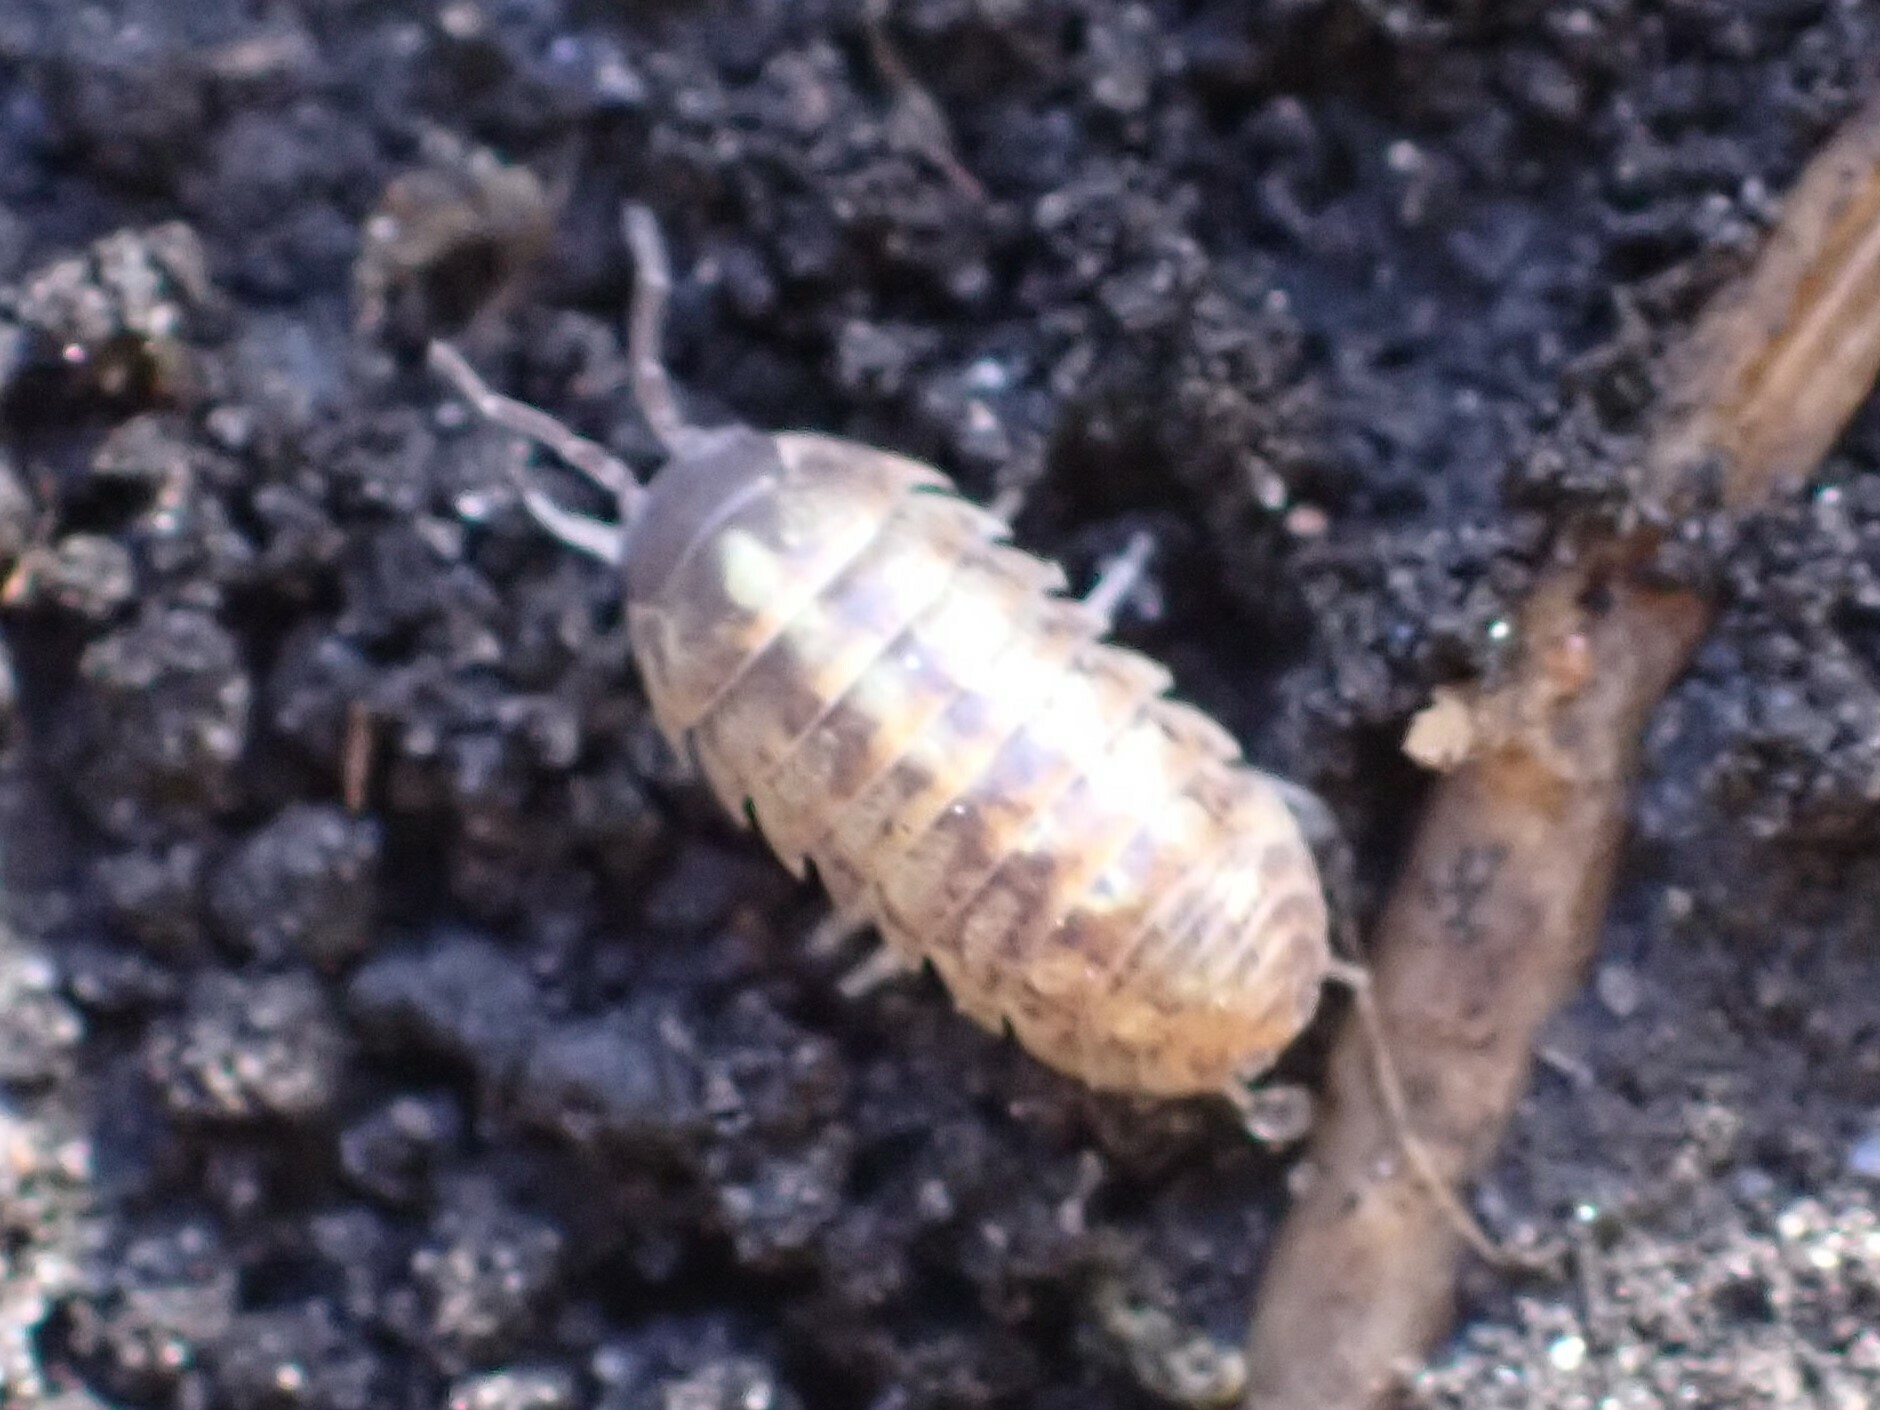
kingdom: Animalia
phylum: Arthropoda
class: Malacostraca
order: Isopoda
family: Armadillidiidae
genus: Armadillidium
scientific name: Armadillidium vulgare
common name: Common pill woodlouse
